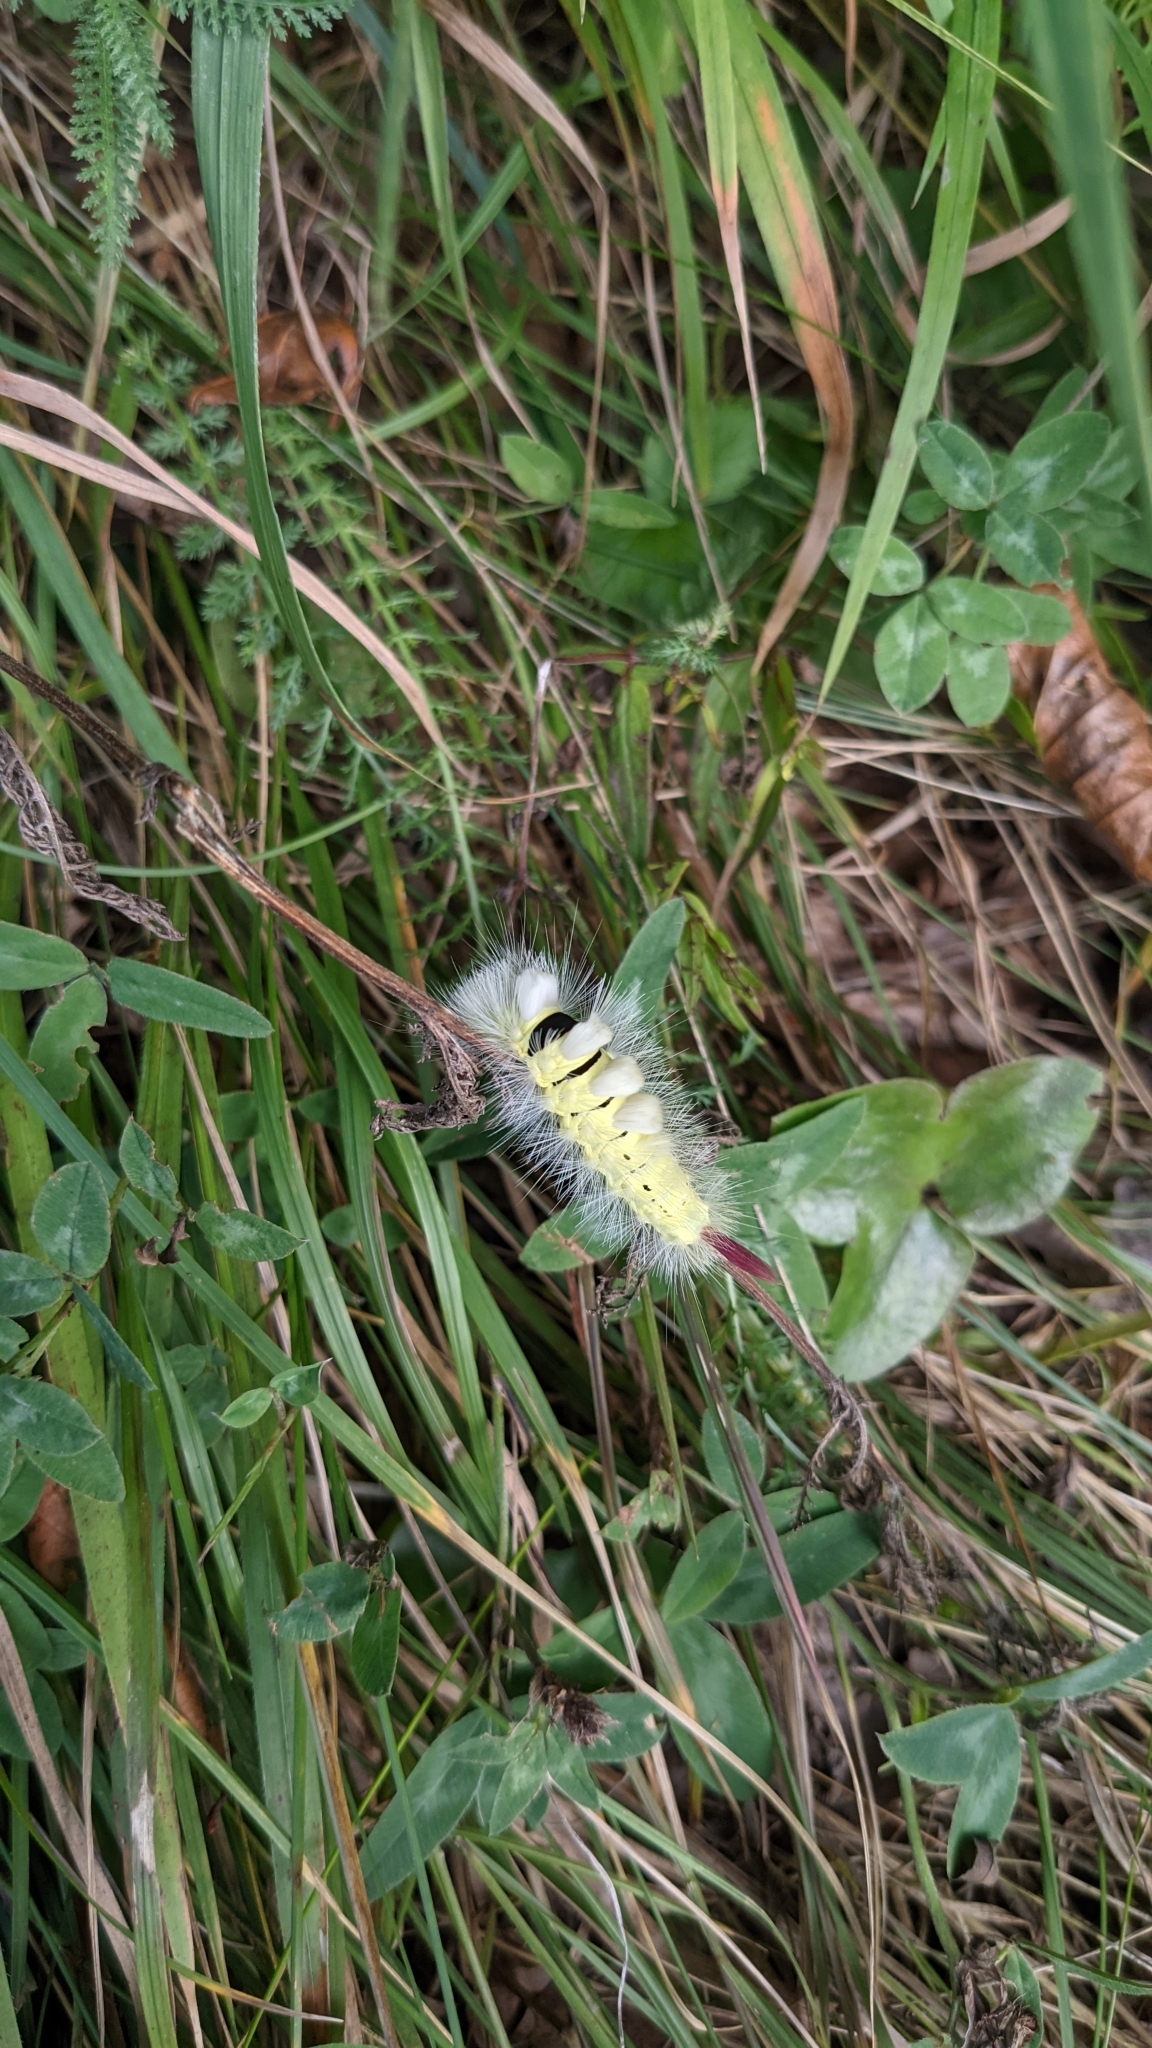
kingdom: Animalia
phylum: Arthropoda
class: Insecta
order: Lepidoptera
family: Erebidae
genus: Calliteara
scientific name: Calliteara pudibunda
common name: Pale tussock
